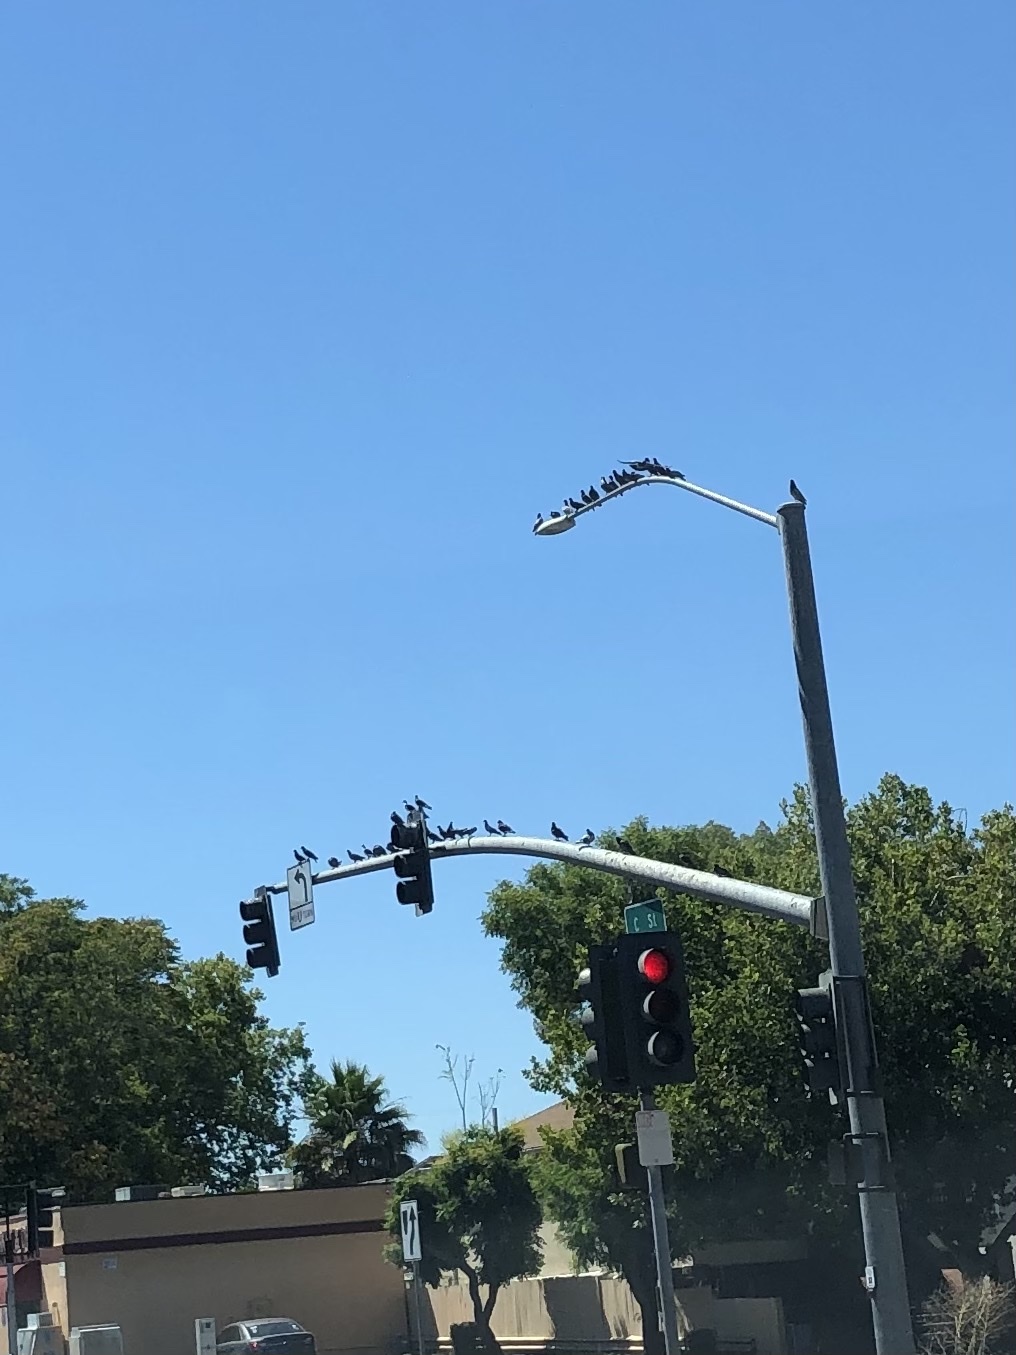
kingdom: Animalia
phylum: Chordata
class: Aves
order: Columbiformes
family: Columbidae
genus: Columba
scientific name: Columba livia
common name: Rock pigeon
